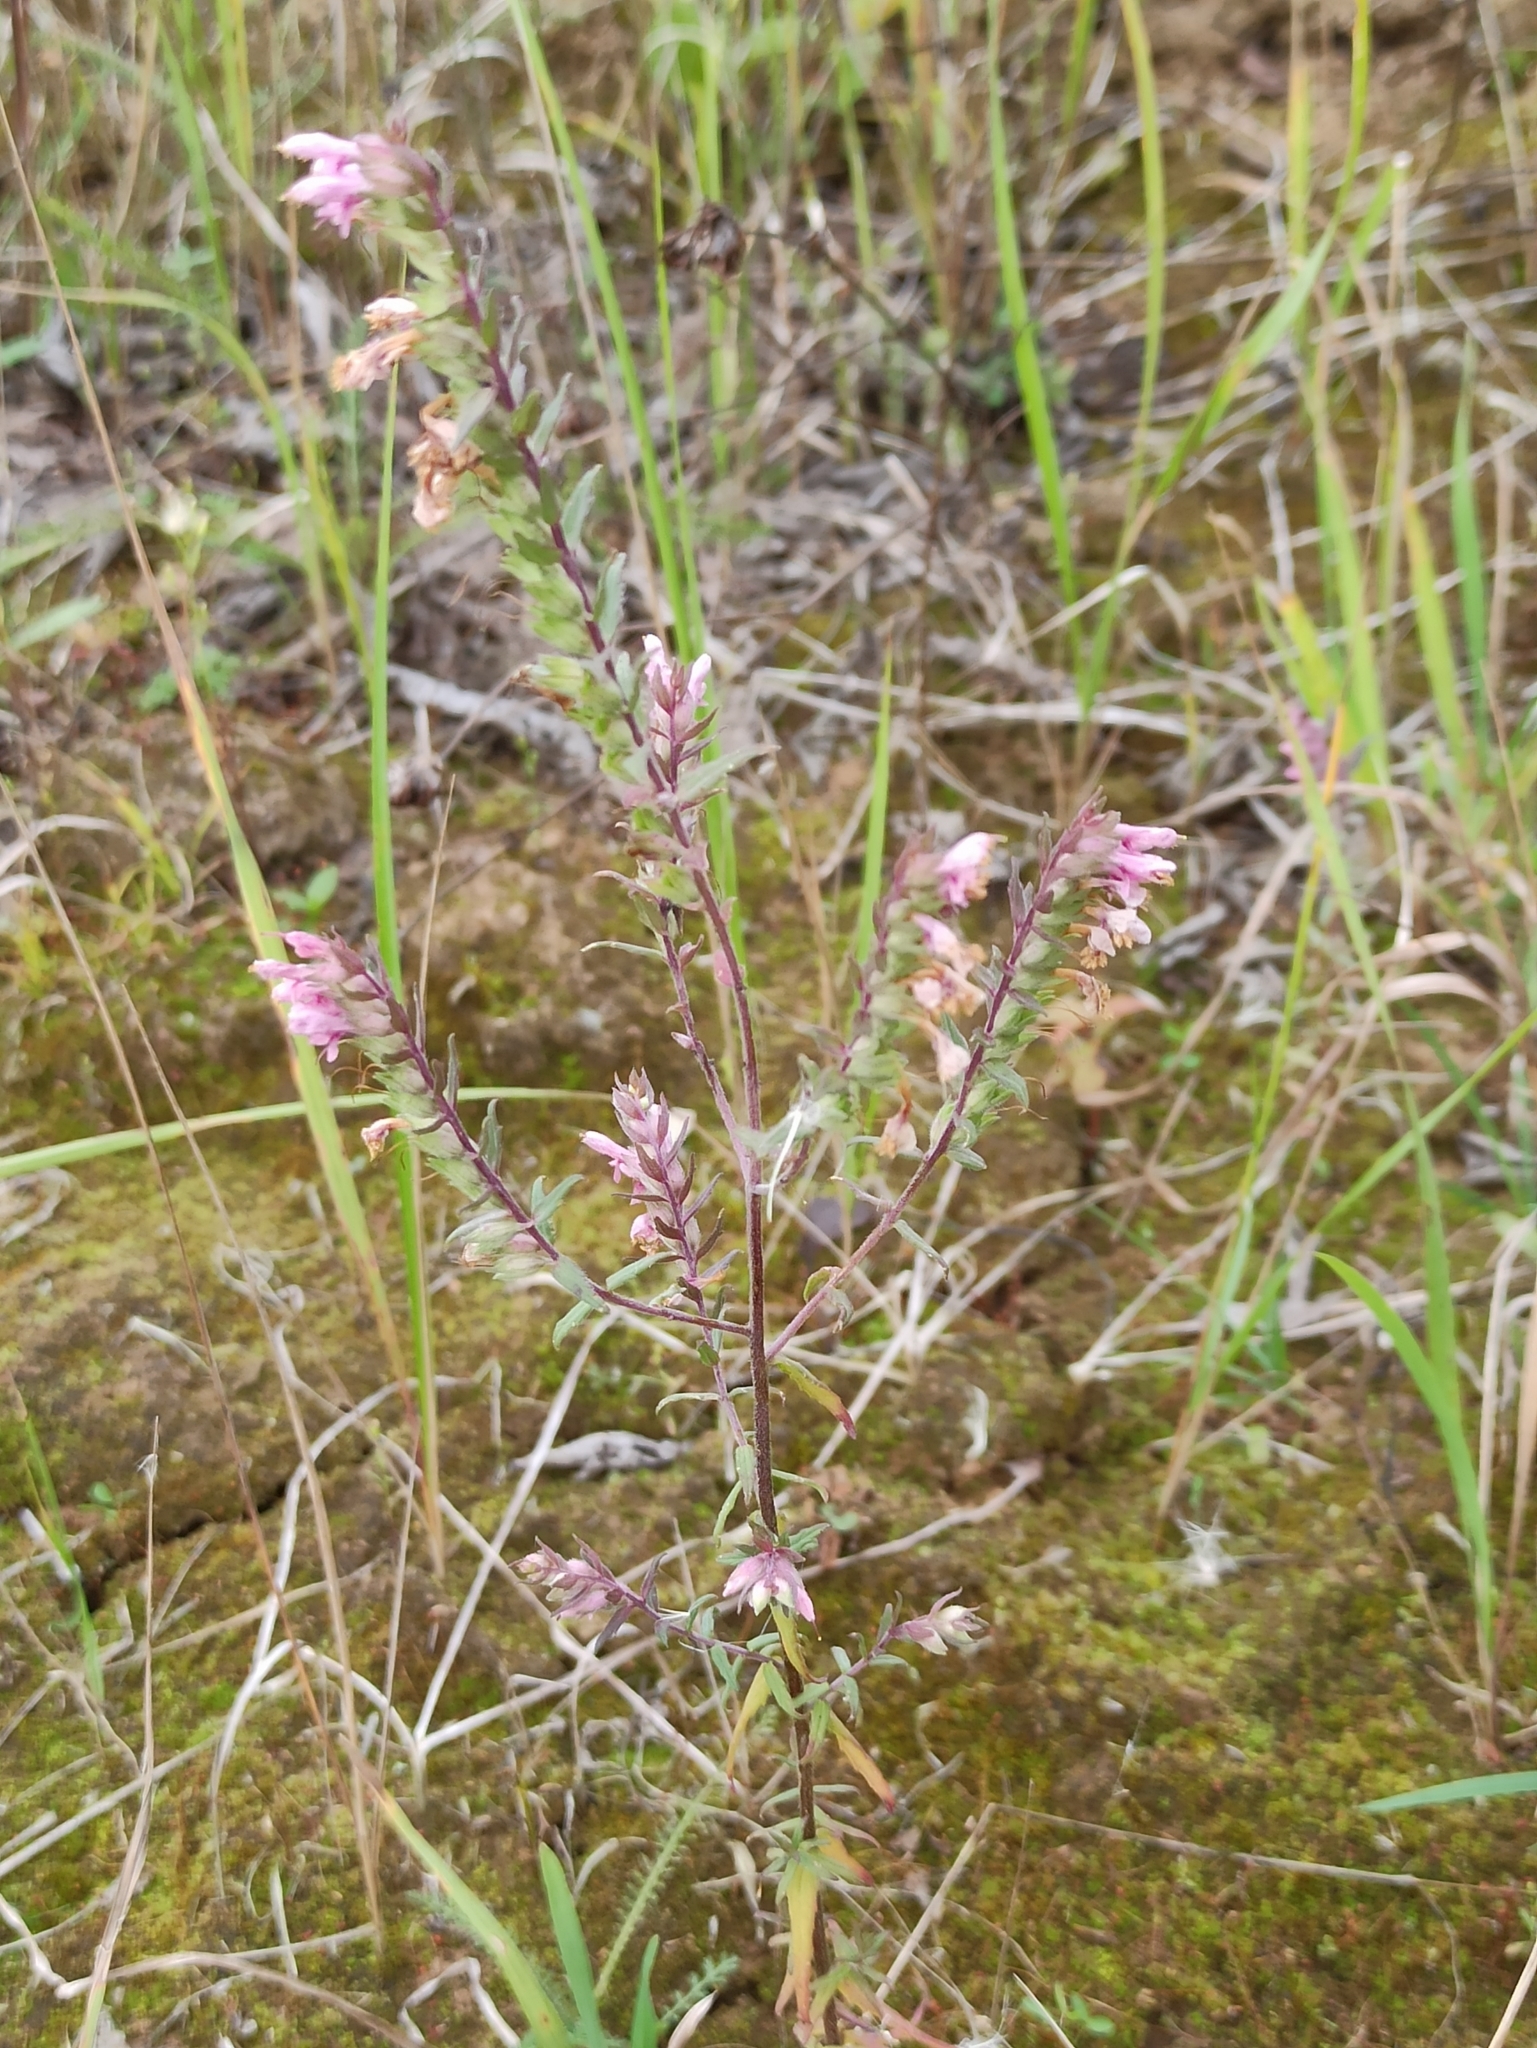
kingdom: Plantae
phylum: Tracheophyta
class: Magnoliopsida
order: Lamiales
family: Orobanchaceae
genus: Odontites
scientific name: Odontites vulgaris
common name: Broomrape
